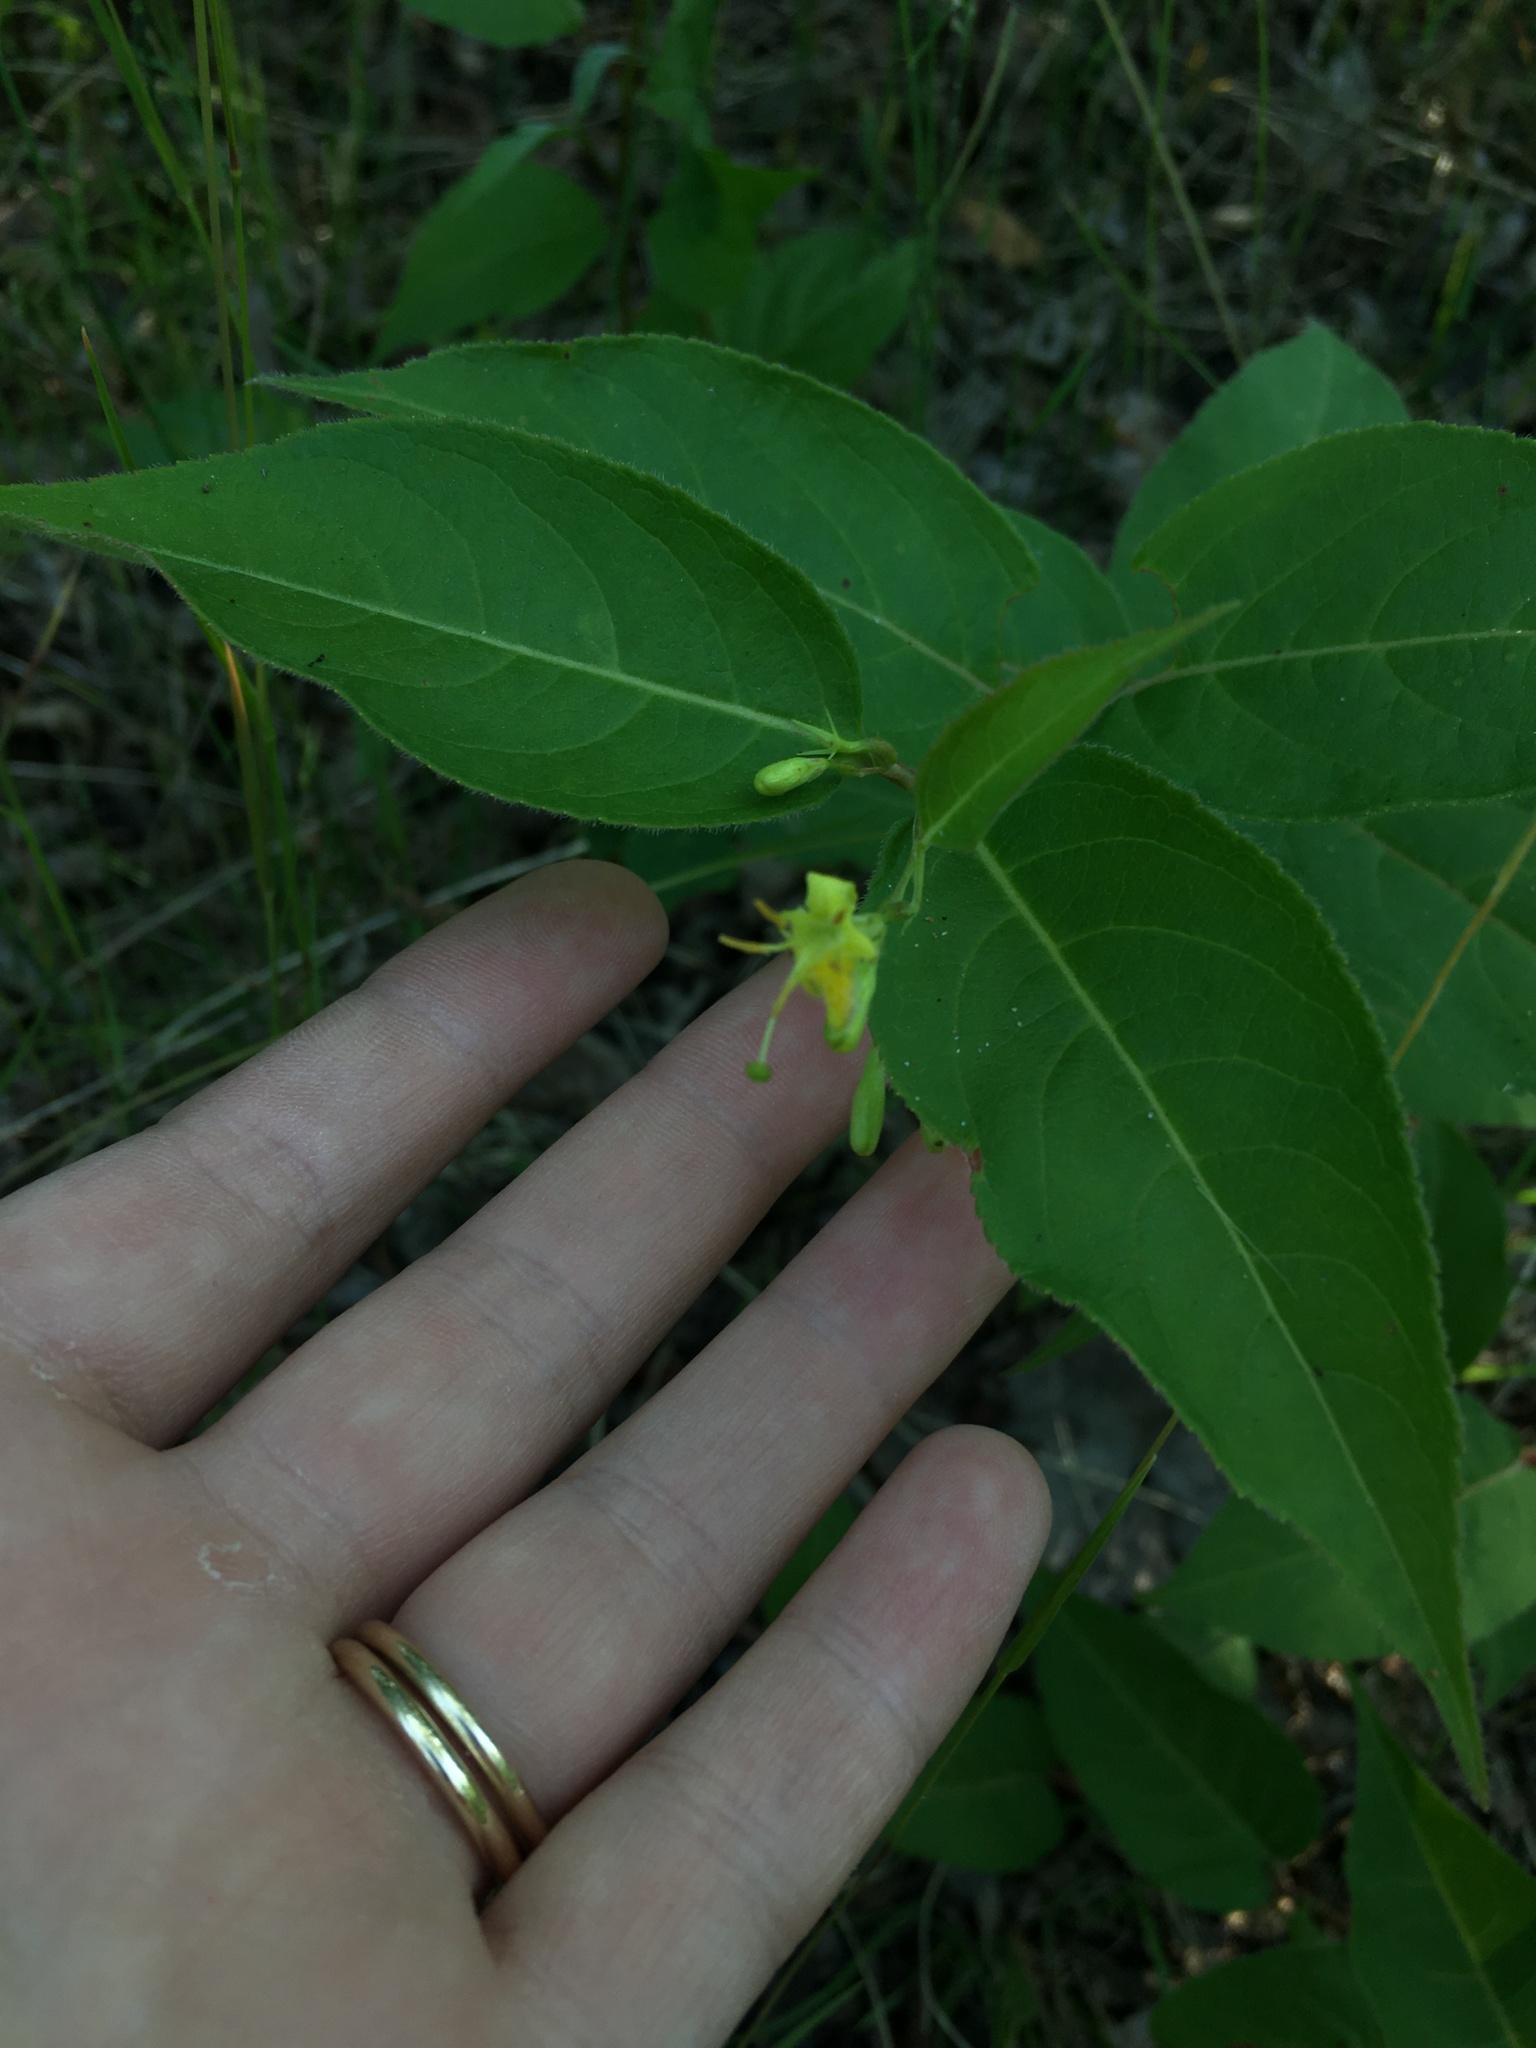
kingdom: Plantae
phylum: Tracheophyta
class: Magnoliopsida
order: Dipsacales
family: Caprifoliaceae
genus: Diervilla
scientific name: Diervilla lonicera
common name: Bush-honeysuckle
